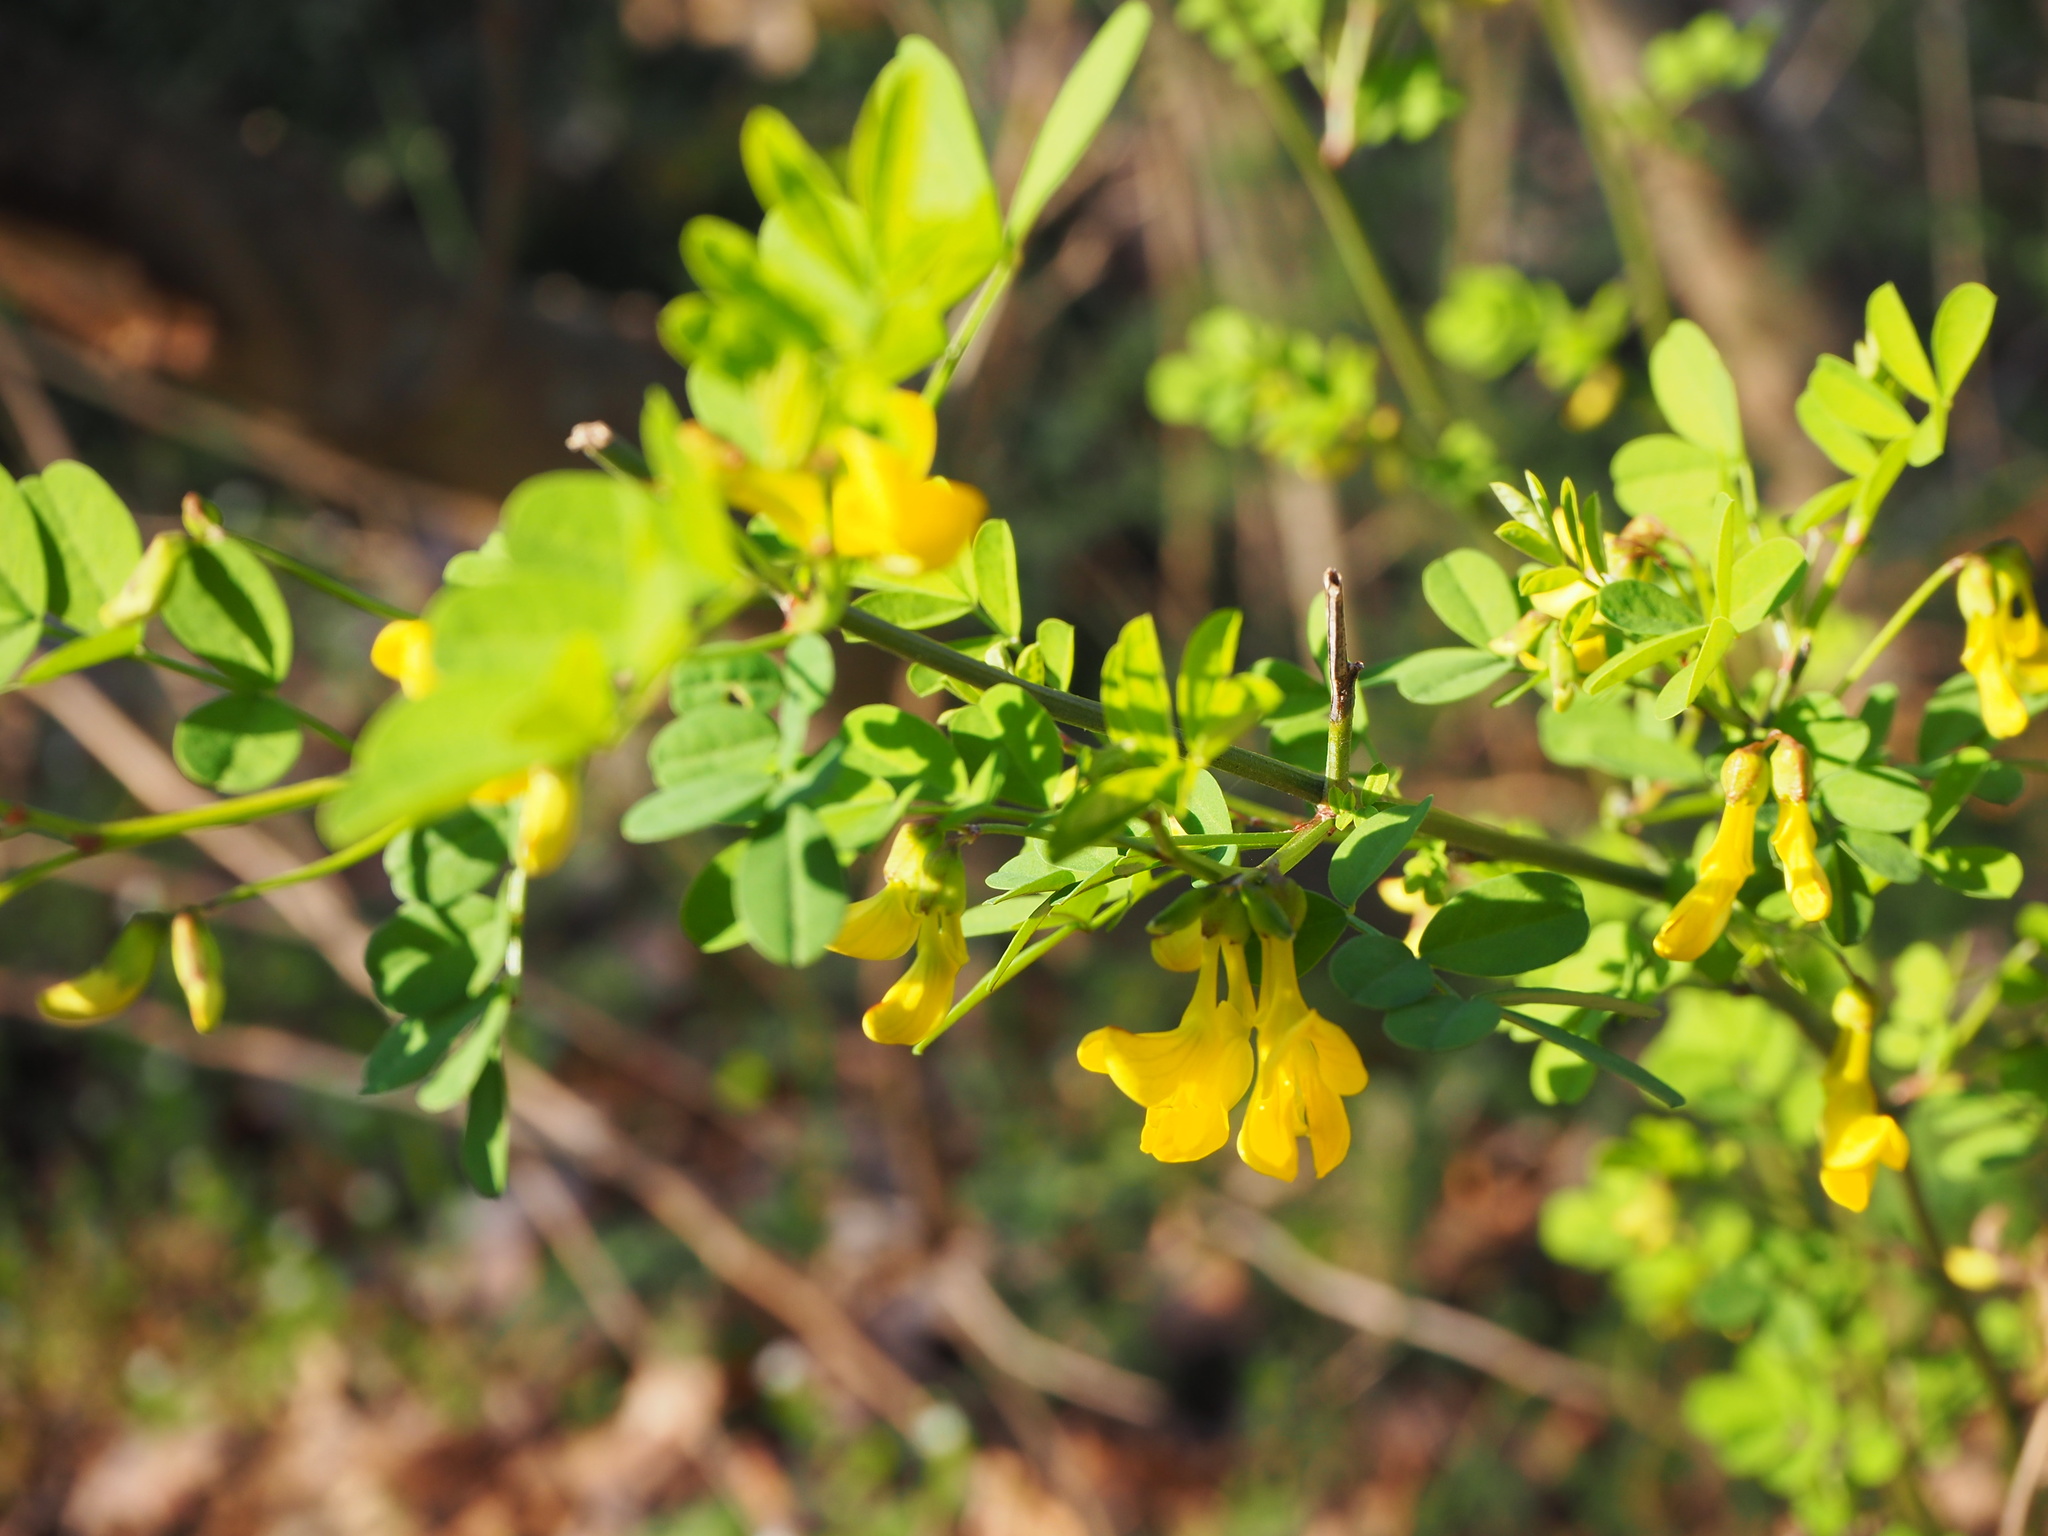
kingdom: Plantae
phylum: Tracheophyta
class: Magnoliopsida
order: Fabales
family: Fabaceae
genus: Hippocrepis
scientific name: Hippocrepis emerus
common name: Scorpion senna
